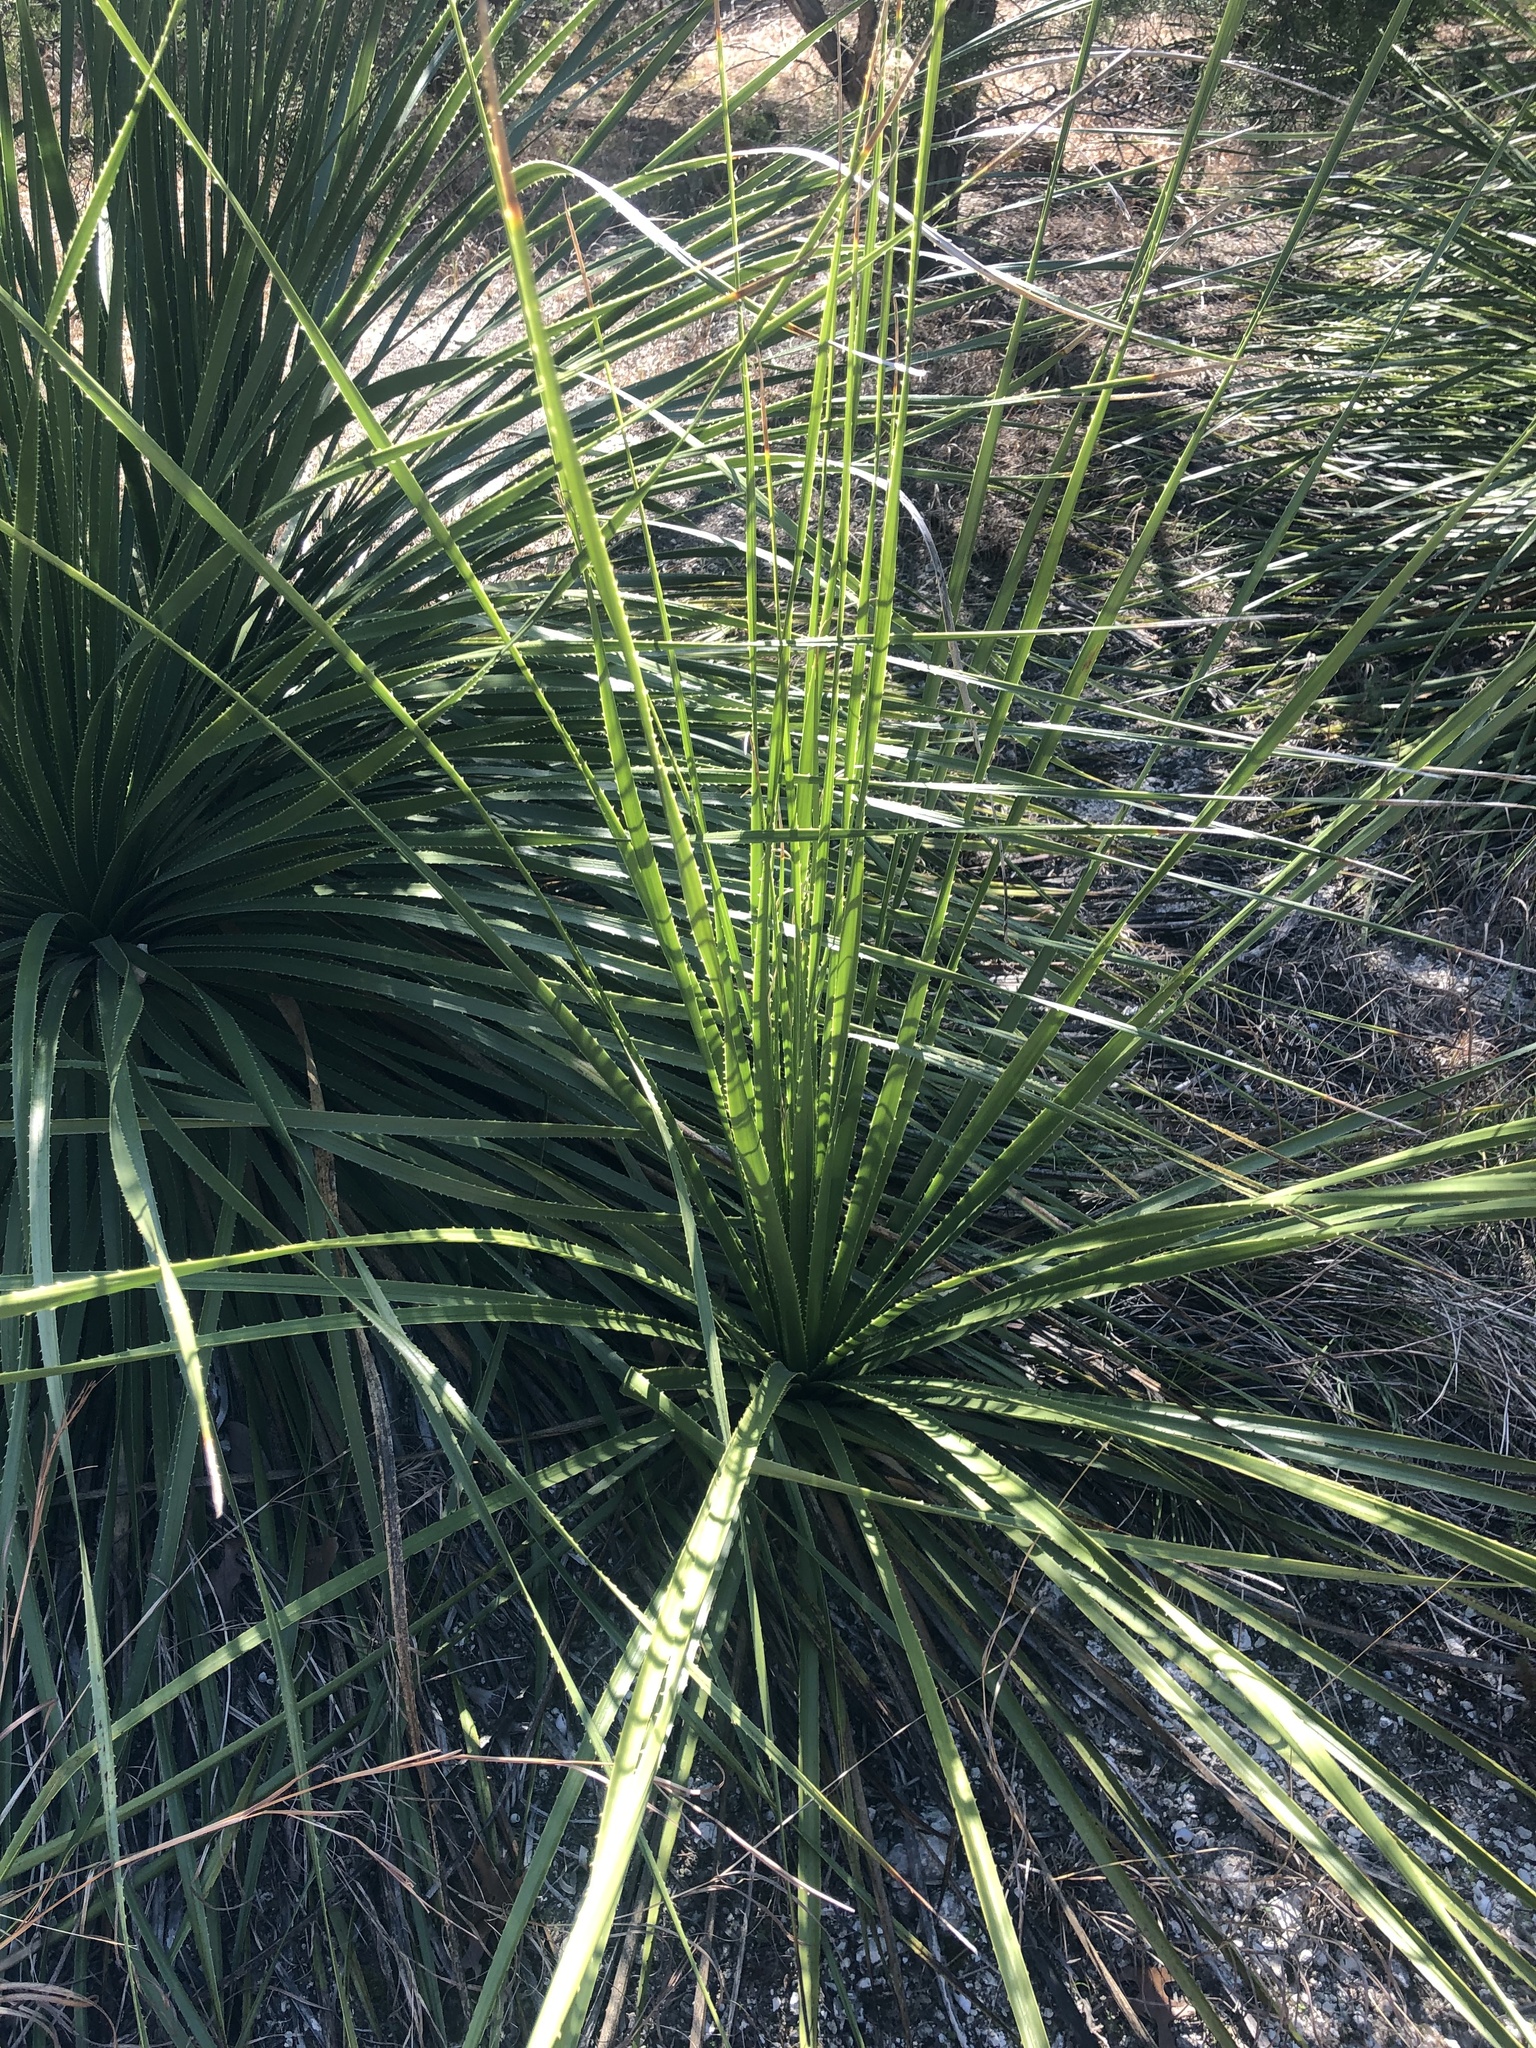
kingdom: Plantae
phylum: Tracheophyta
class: Liliopsida
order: Asparagales
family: Asparagaceae
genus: Dasylirion
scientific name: Dasylirion texanum
